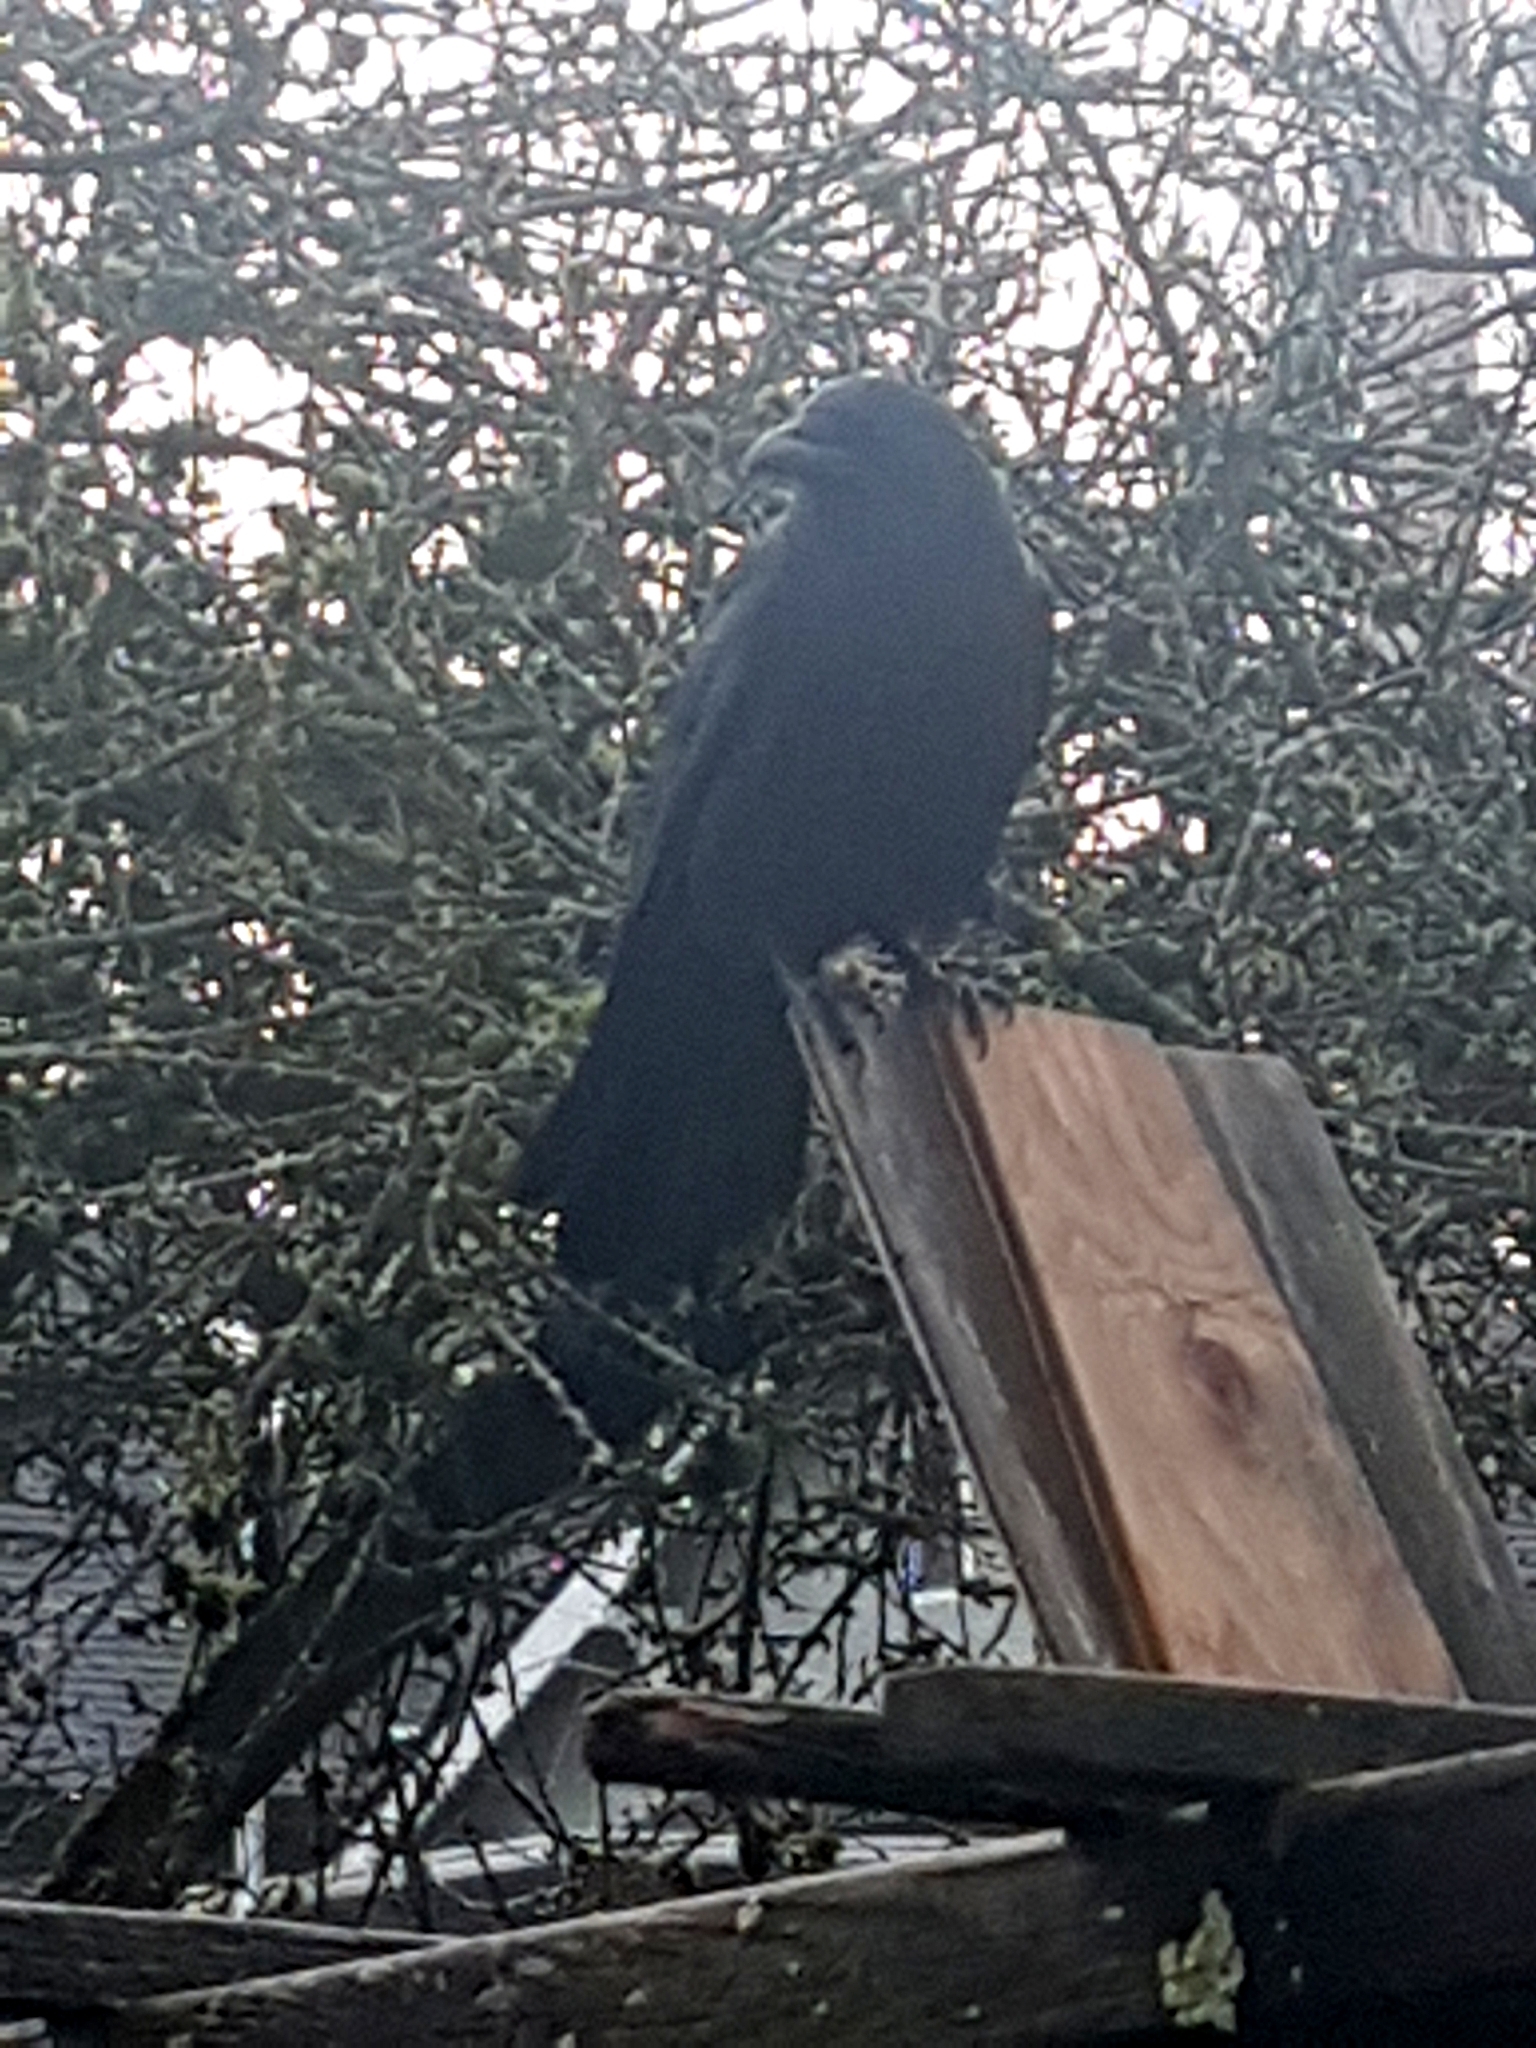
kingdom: Animalia
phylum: Chordata
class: Aves
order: Passeriformes
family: Corvidae
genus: Corvus
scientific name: Corvus brachyrhynchos
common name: American crow
